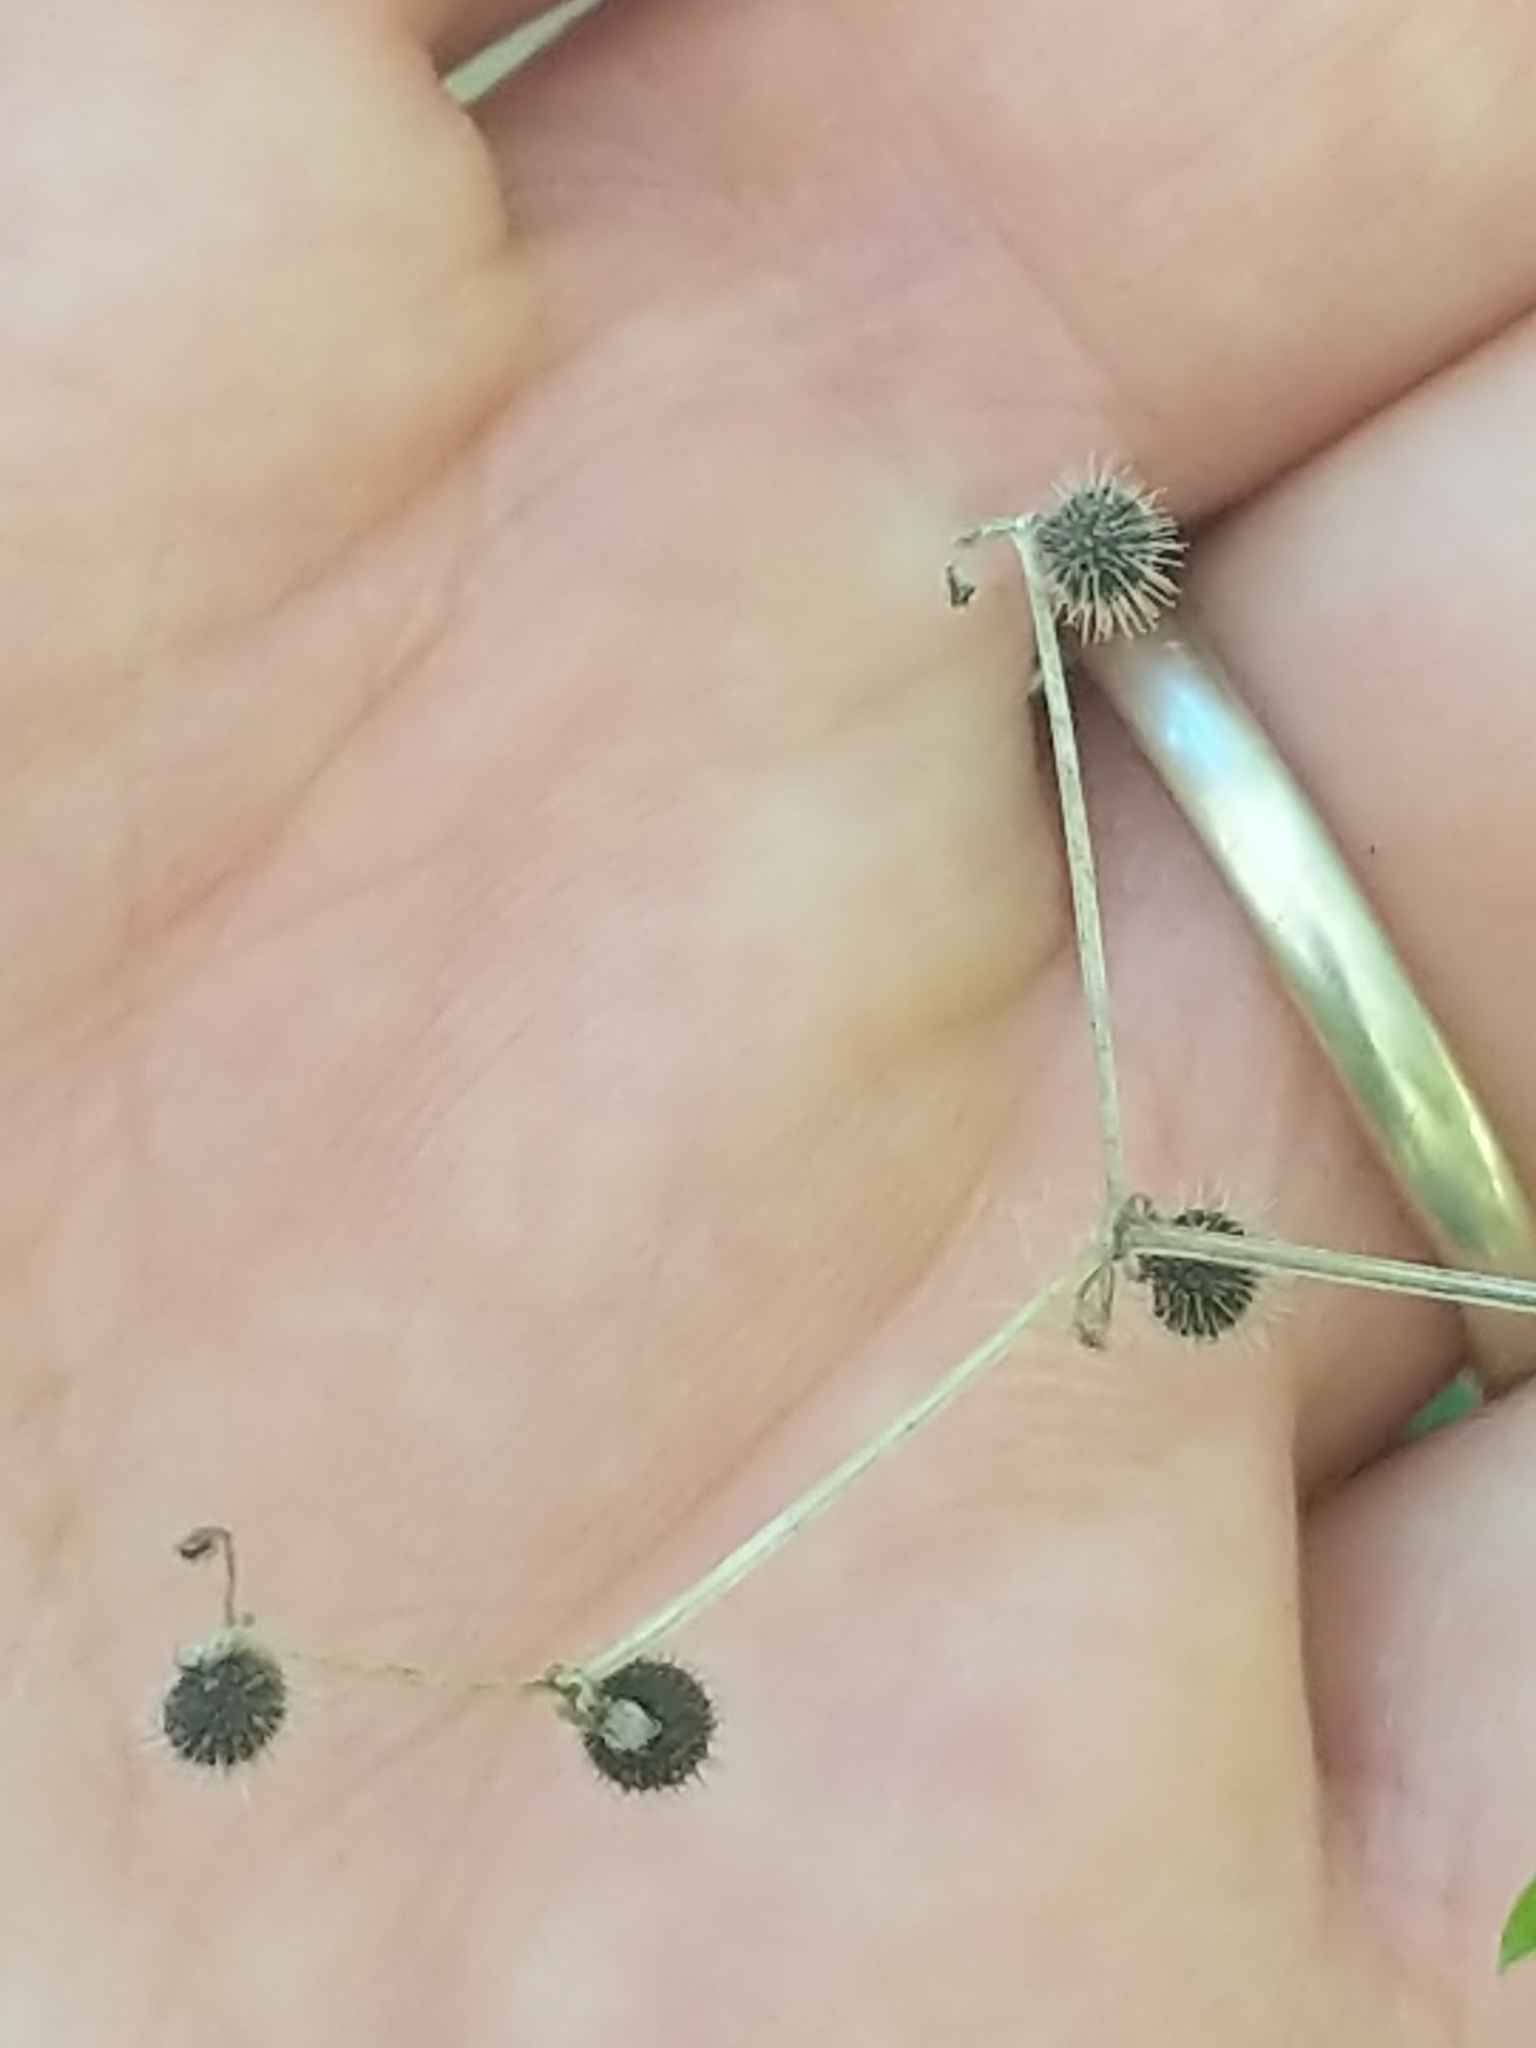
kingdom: Plantae
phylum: Tracheophyta
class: Magnoliopsida
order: Gentianales
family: Rubiaceae
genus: Galium
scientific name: Galium circaezans
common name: Forest bedstraw
